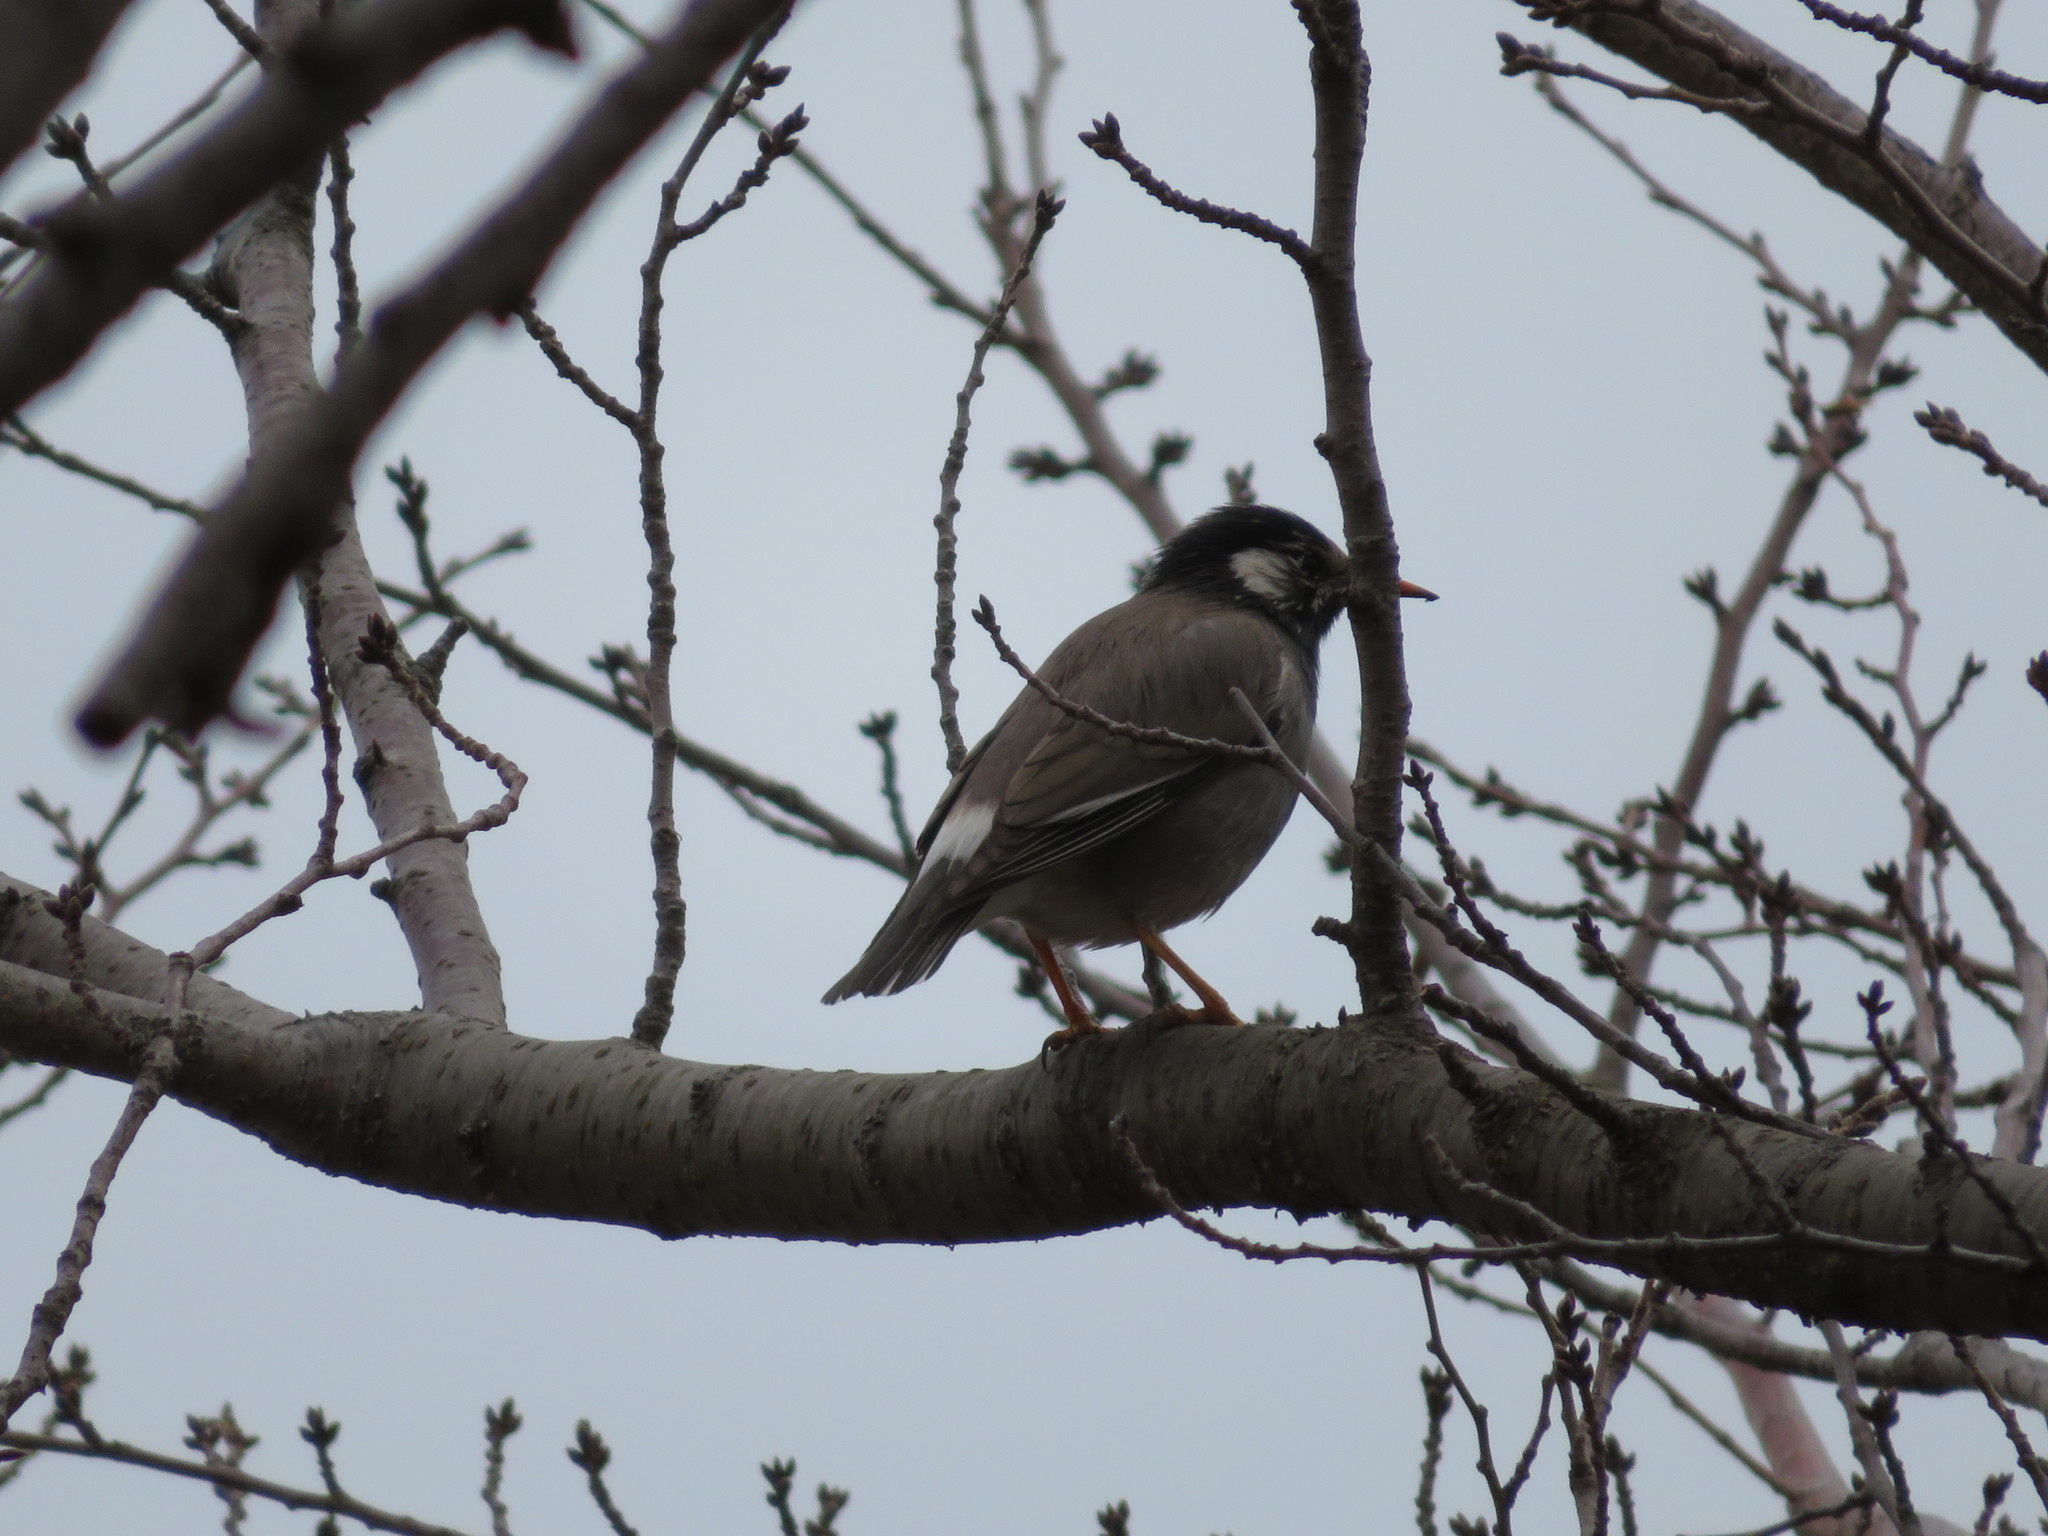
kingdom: Animalia
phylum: Chordata
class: Aves
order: Passeriformes
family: Sturnidae
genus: Spodiopsar
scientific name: Spodiopsar cineraceus
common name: White-cheeked starling
